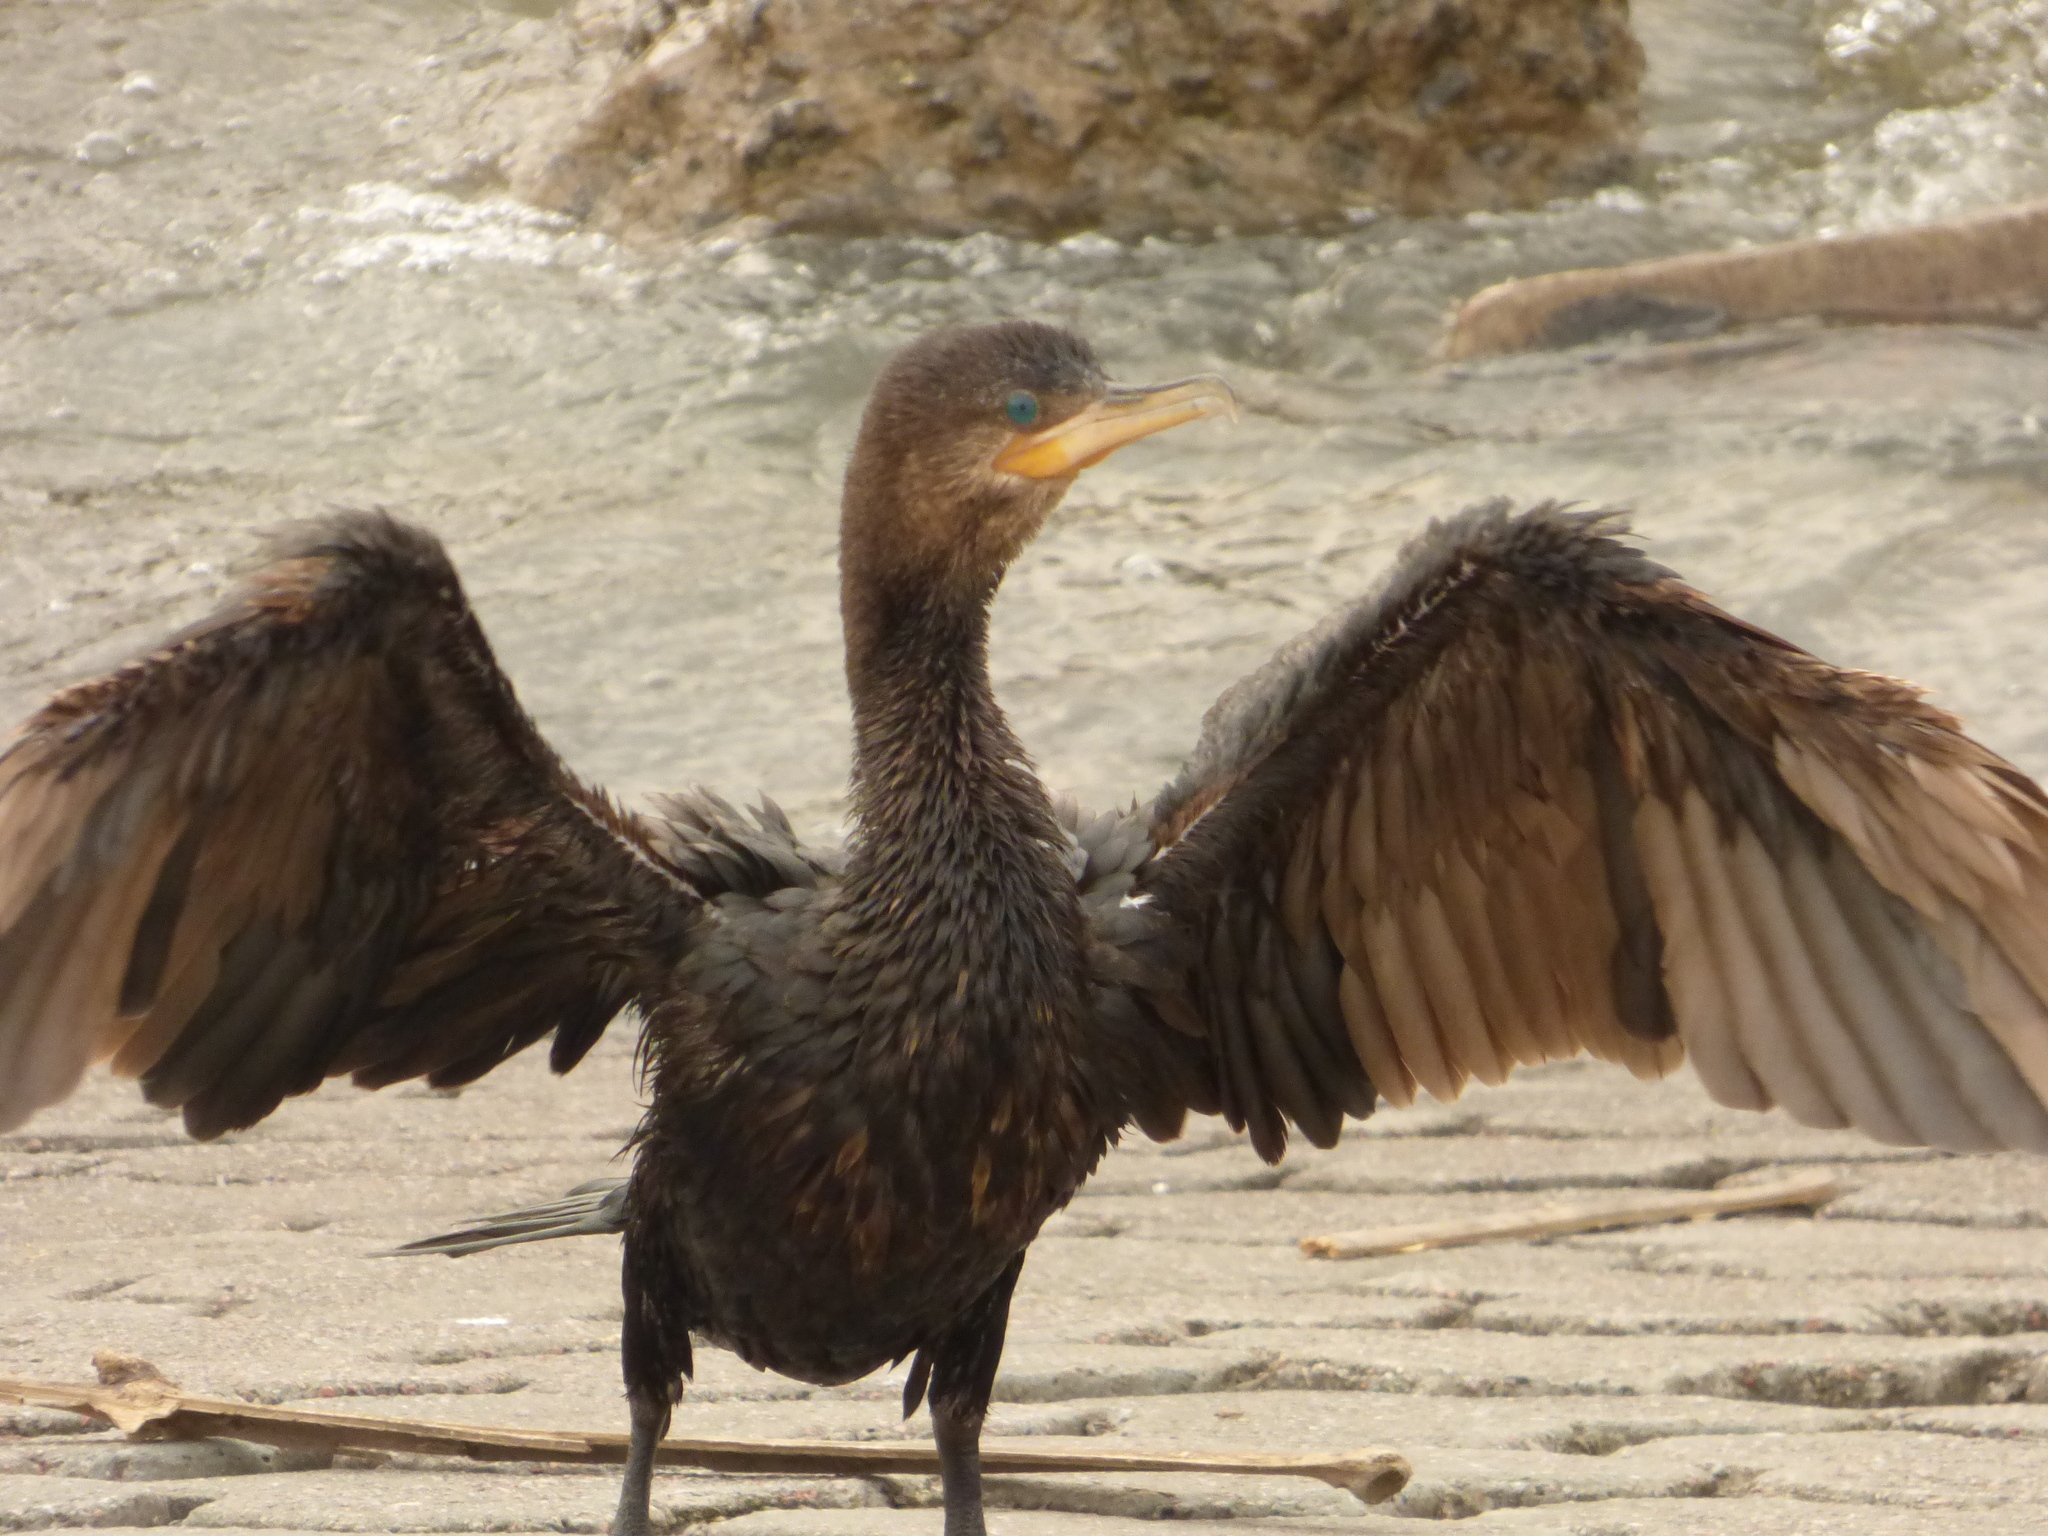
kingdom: Animalia
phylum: Chordata
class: Aves
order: Suliformes
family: Phalacrocoracidae
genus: Phalacrocorax
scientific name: Phalacrocorax brasilianus
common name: Neotropic cormorant
